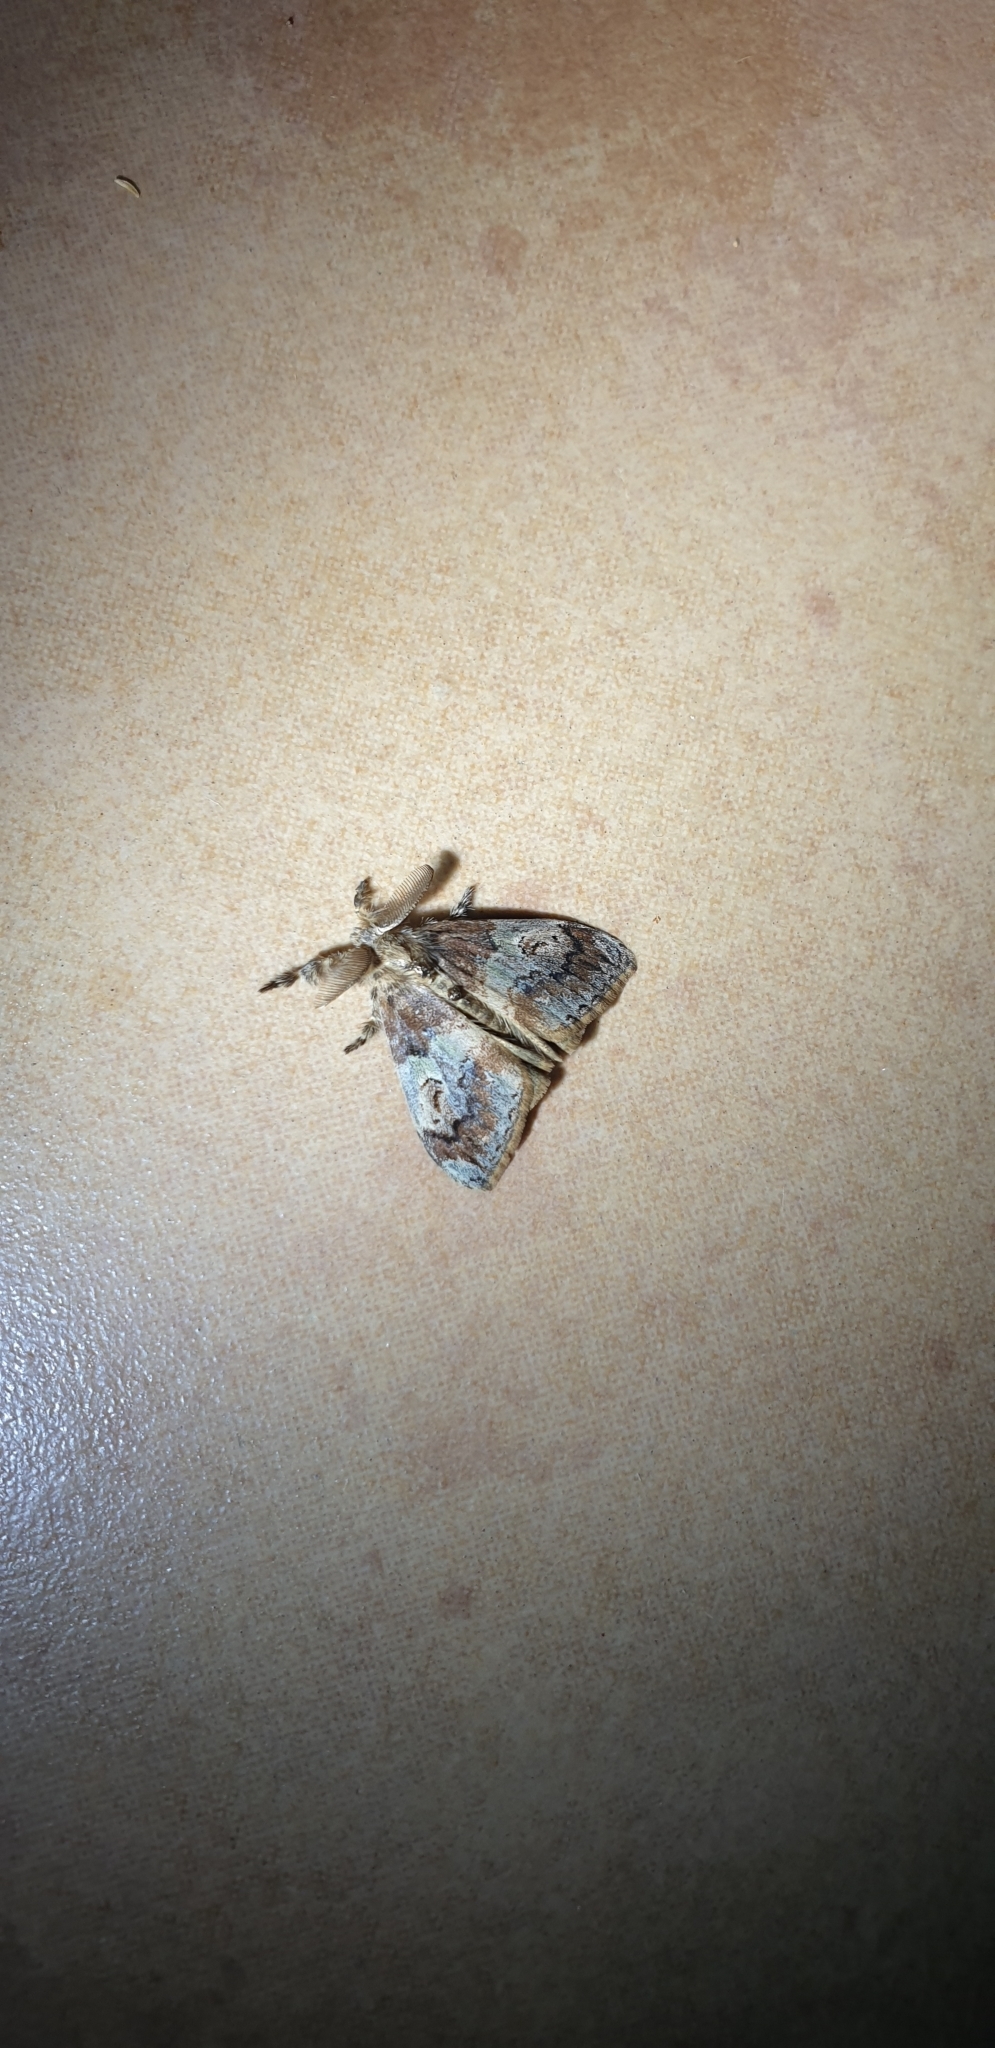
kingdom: Animalia
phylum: Arthropoda
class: Insecta
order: Lepidoptera
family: Erebidae
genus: Orgyia
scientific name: Orgyia australis
